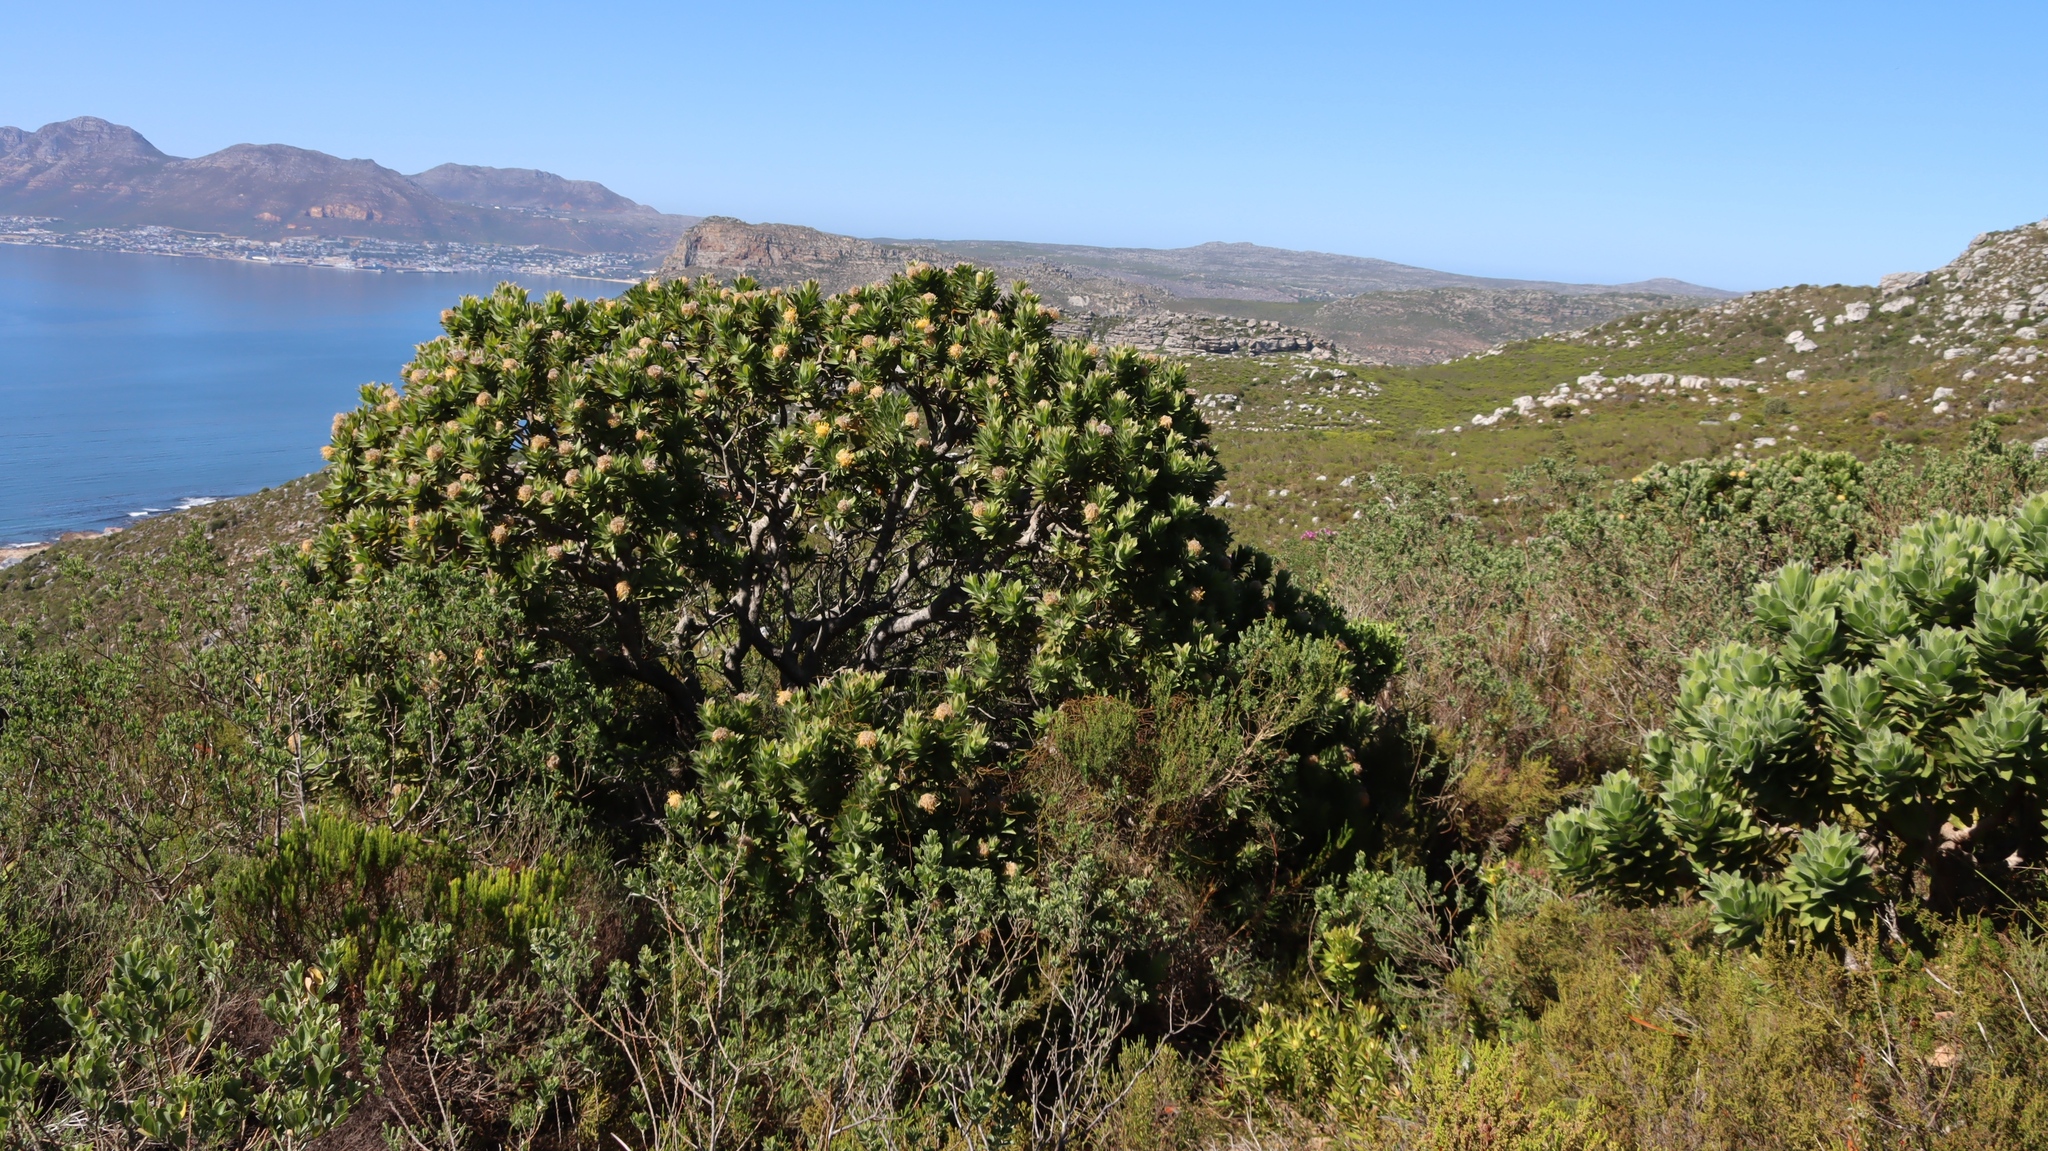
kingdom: Plantae
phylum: Tracheophyta
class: Magnoliopsida
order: Proteales
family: Proteaceae
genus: Leucospermum
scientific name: Leucospermum conocarpodendron
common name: Tree pincushion
